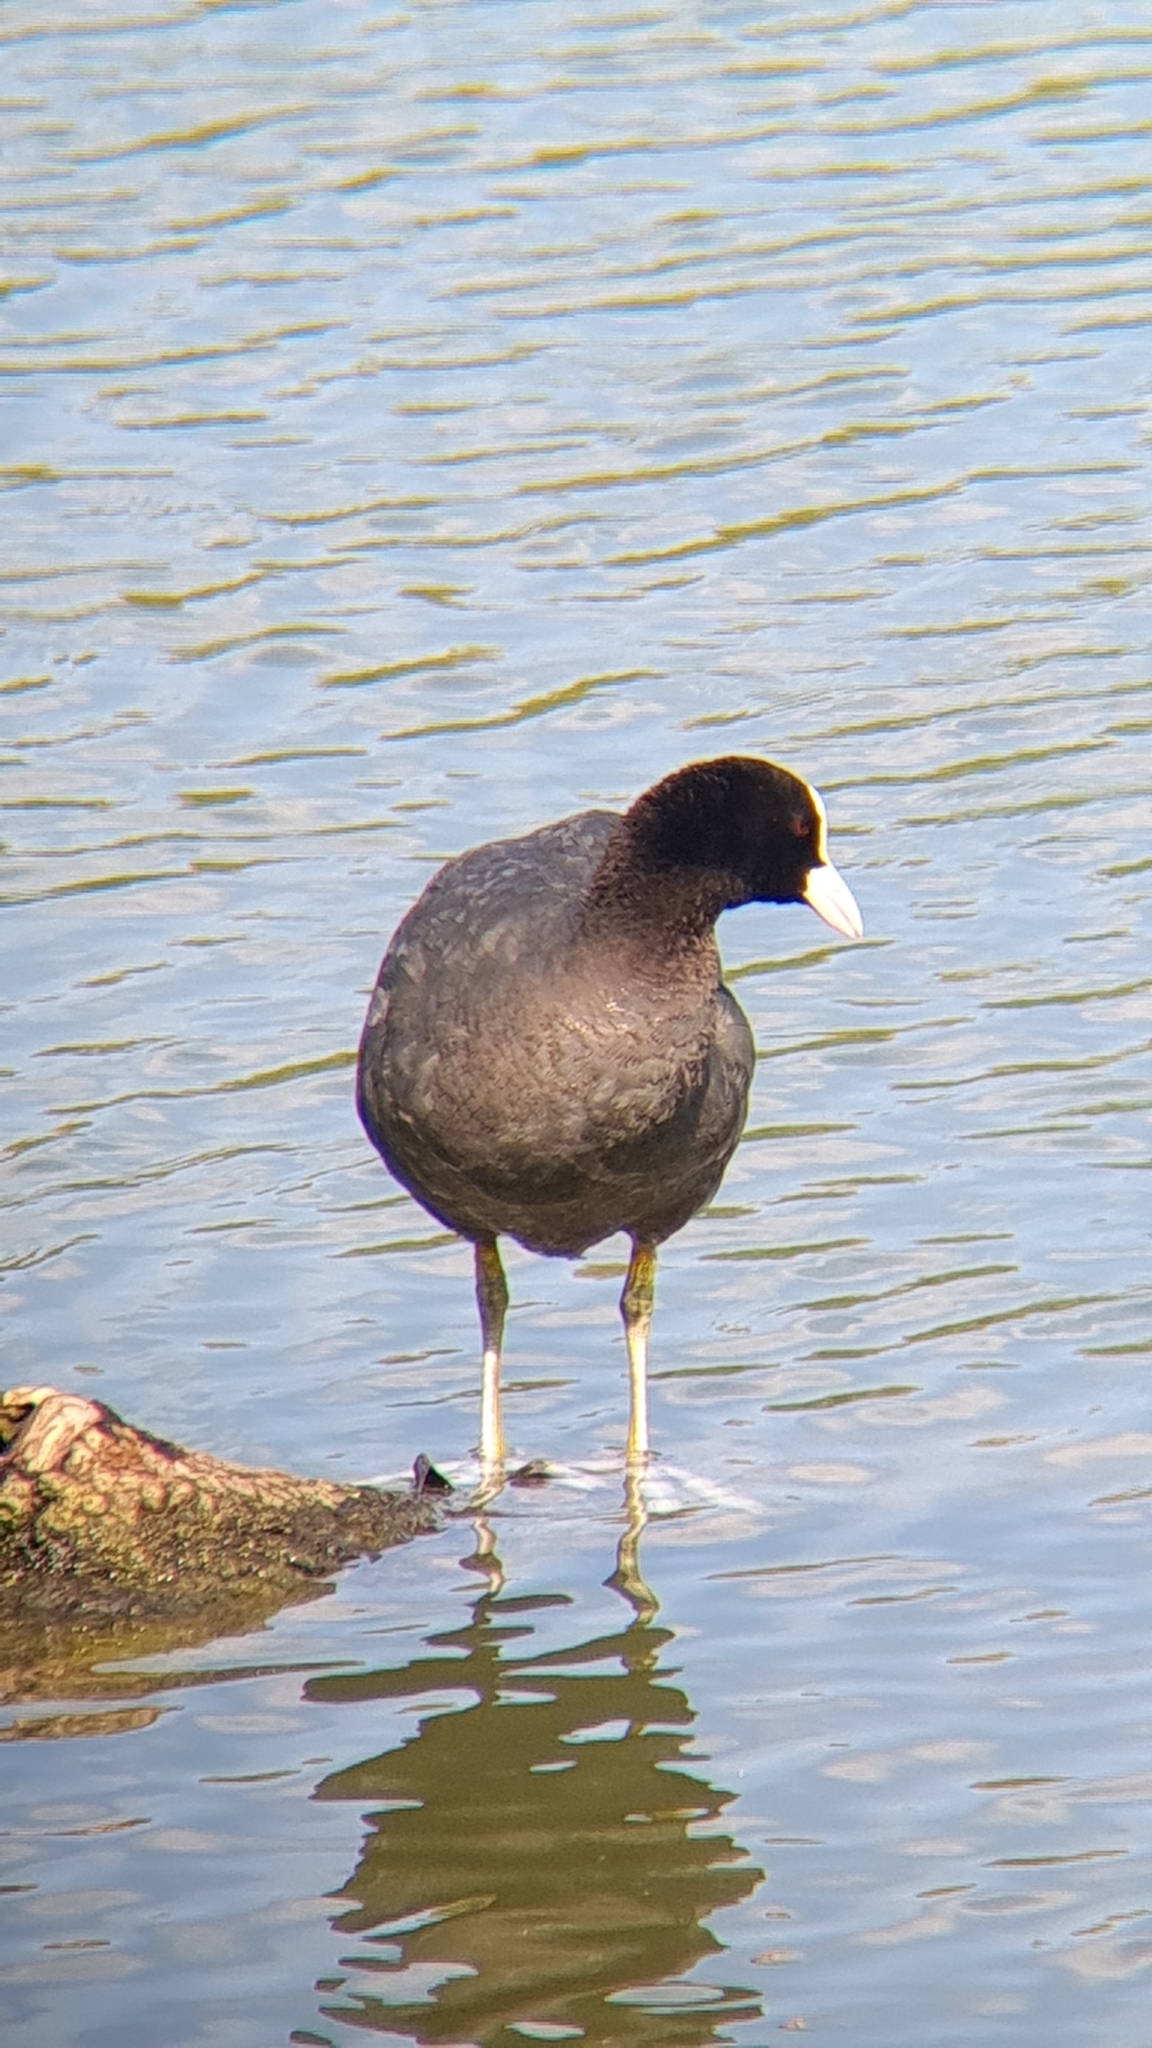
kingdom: Animalia
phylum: Chordata
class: Aves
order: Gruiformes
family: Rallidae
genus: Fulica
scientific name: Fulica atra
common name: Eurasian coot
